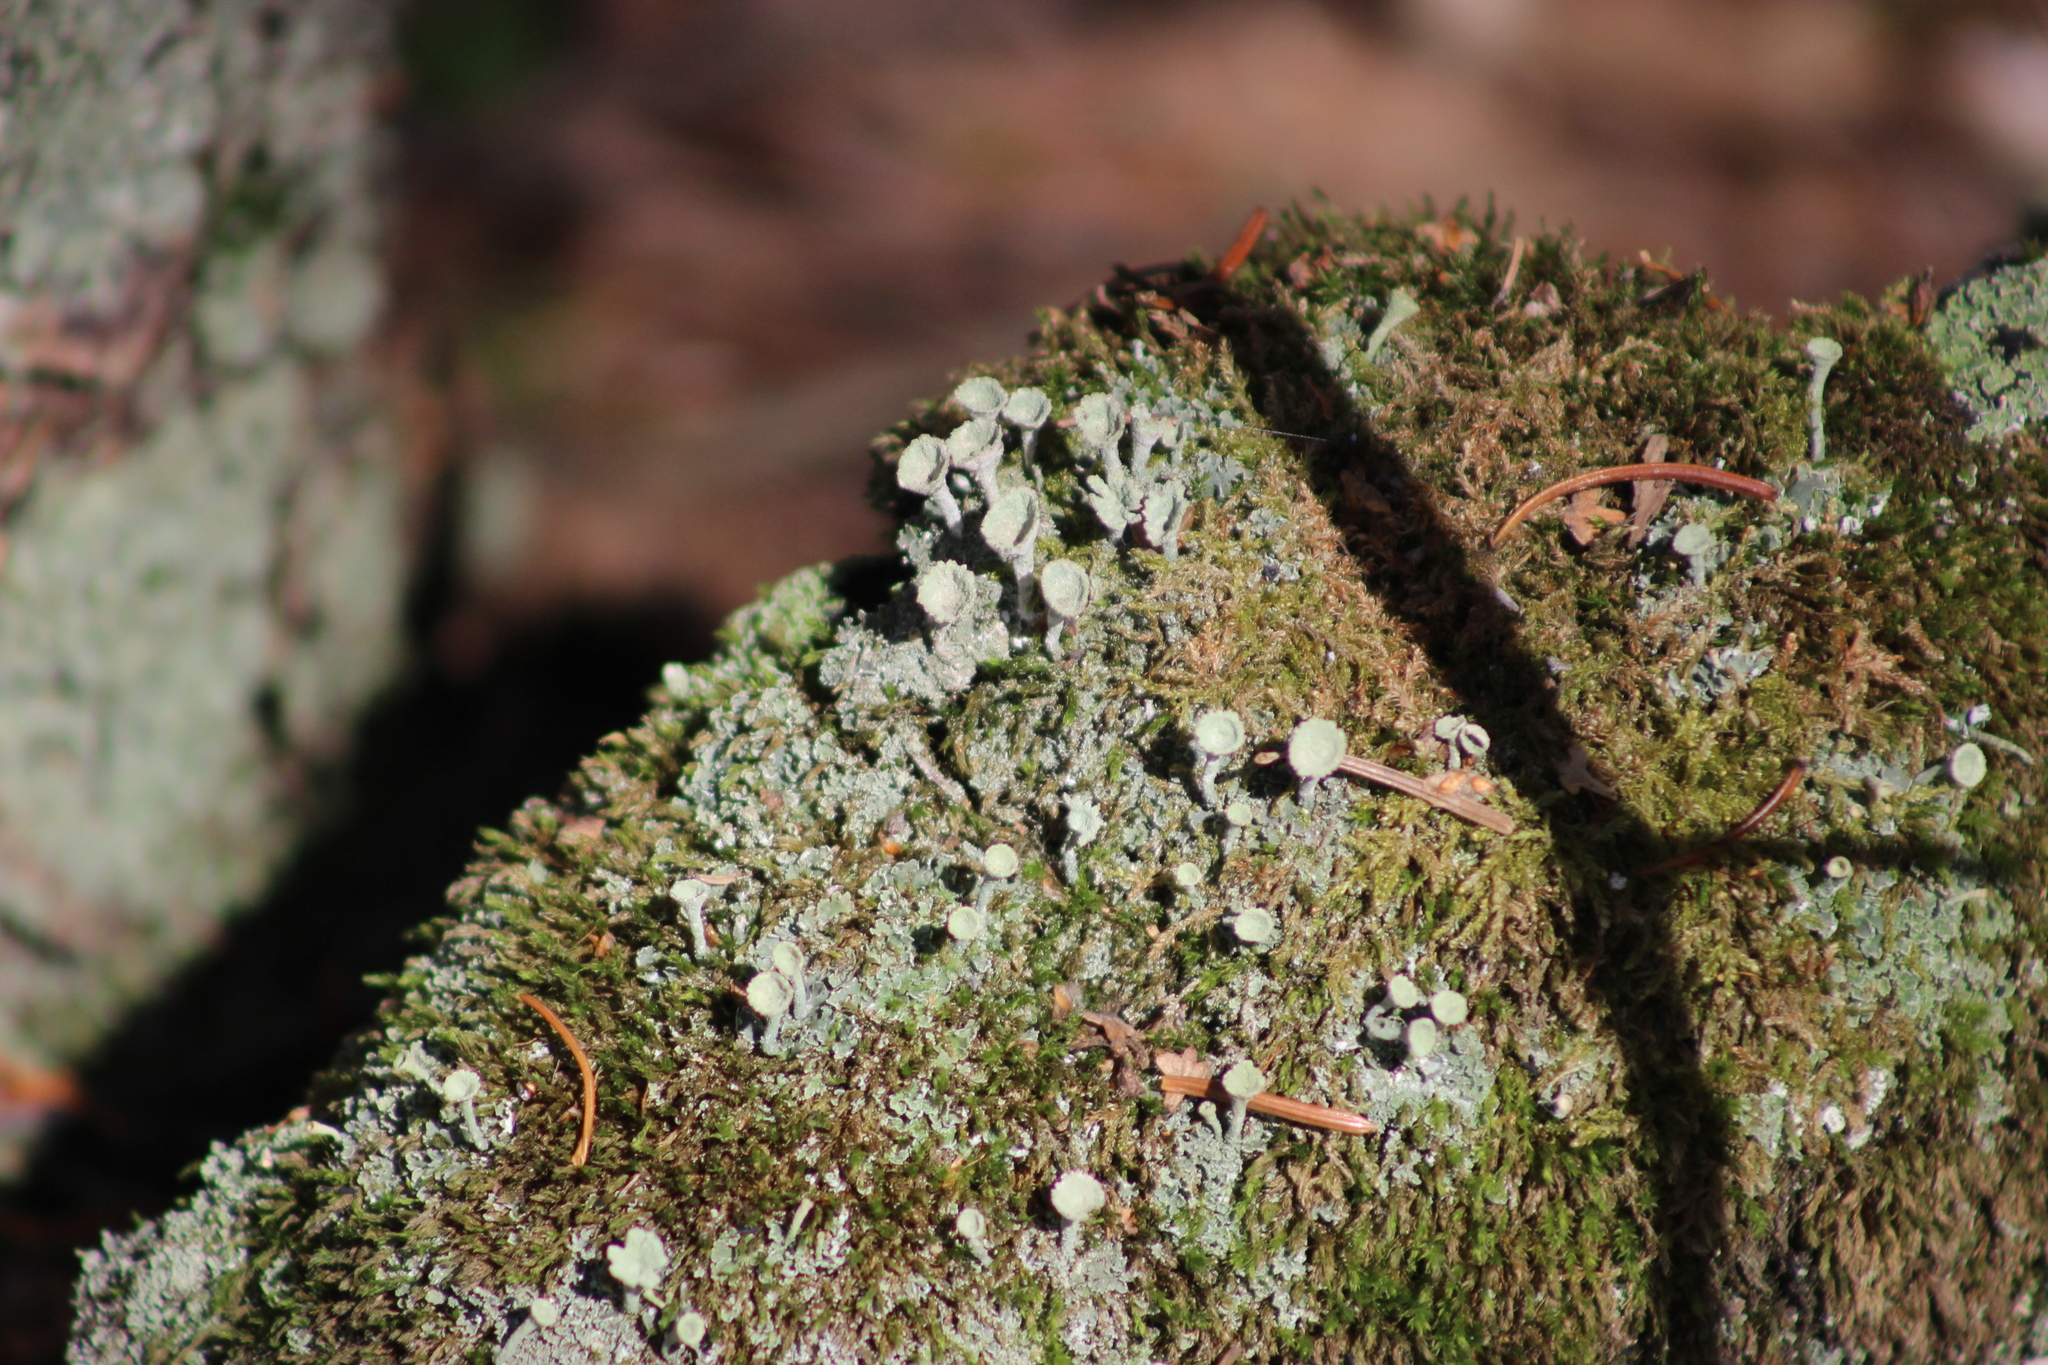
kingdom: Fungi
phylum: Ascomycota
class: Lecanoromycetes
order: Lecanorales
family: Cladoniaceae
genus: Cladonia
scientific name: Cladonia fimbriata
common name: Powdered trumpet lichen
